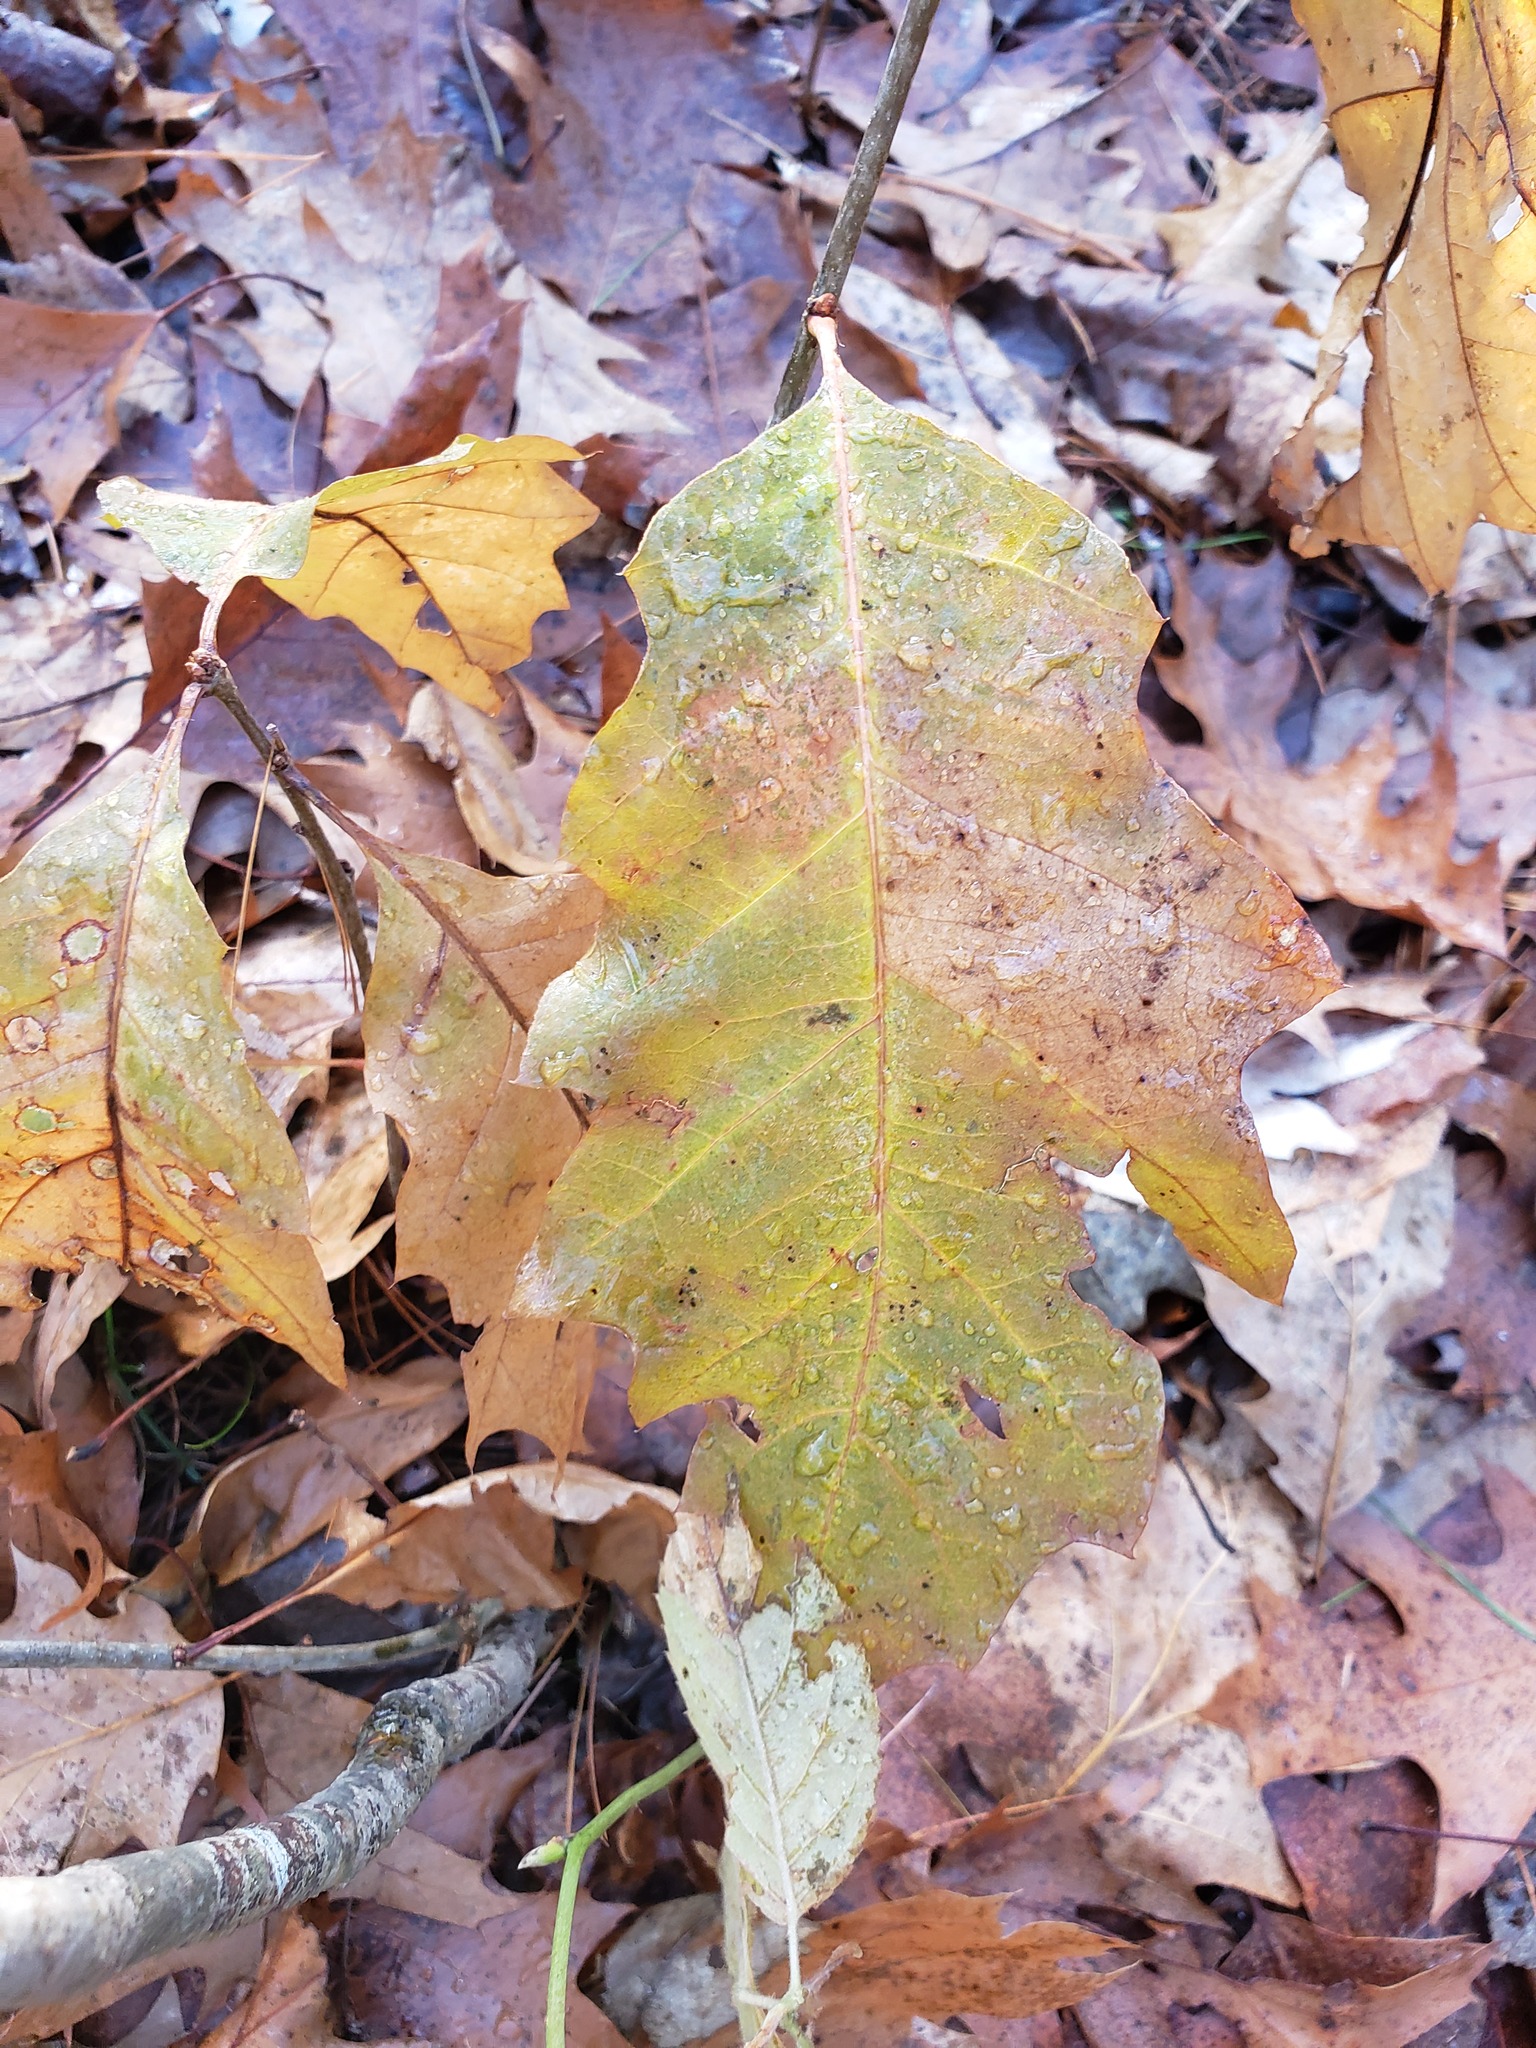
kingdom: Plantae
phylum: Tracheophyta
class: Magnoliopsida
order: Fagales
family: Fagaceae
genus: Quercus
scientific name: Quercus rubra
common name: Red oak
